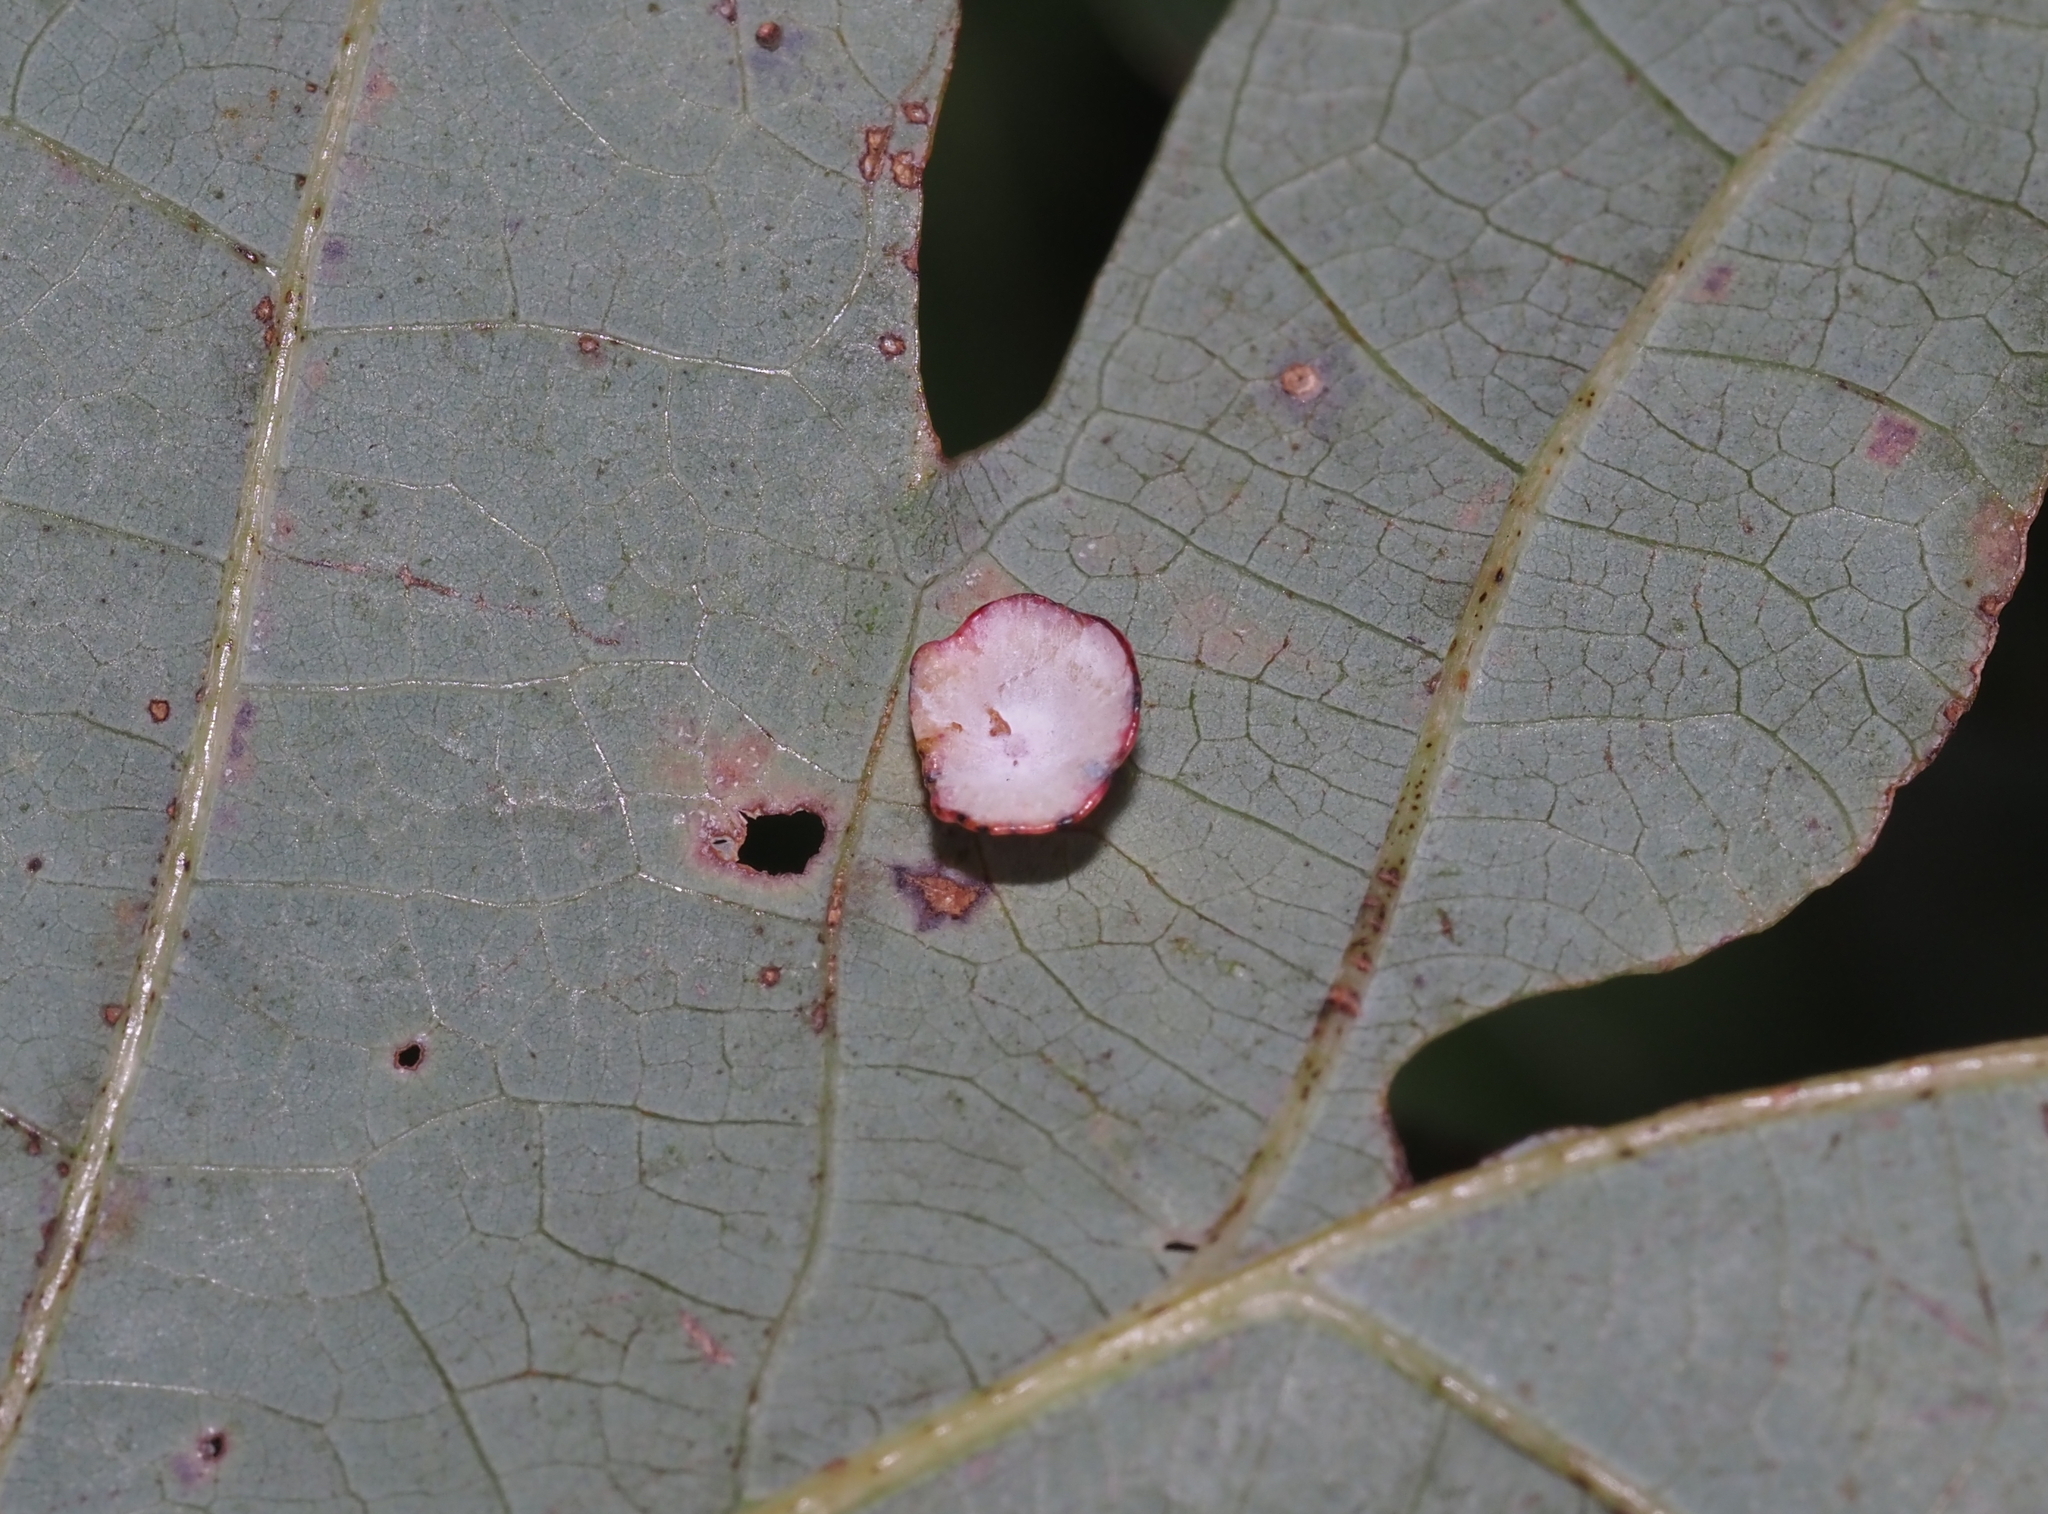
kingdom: Animalia
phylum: Arthropoda
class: Insecta
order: Hymenoptera
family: Cynipidae
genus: Phylloteras
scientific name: Phylloteras poculum
